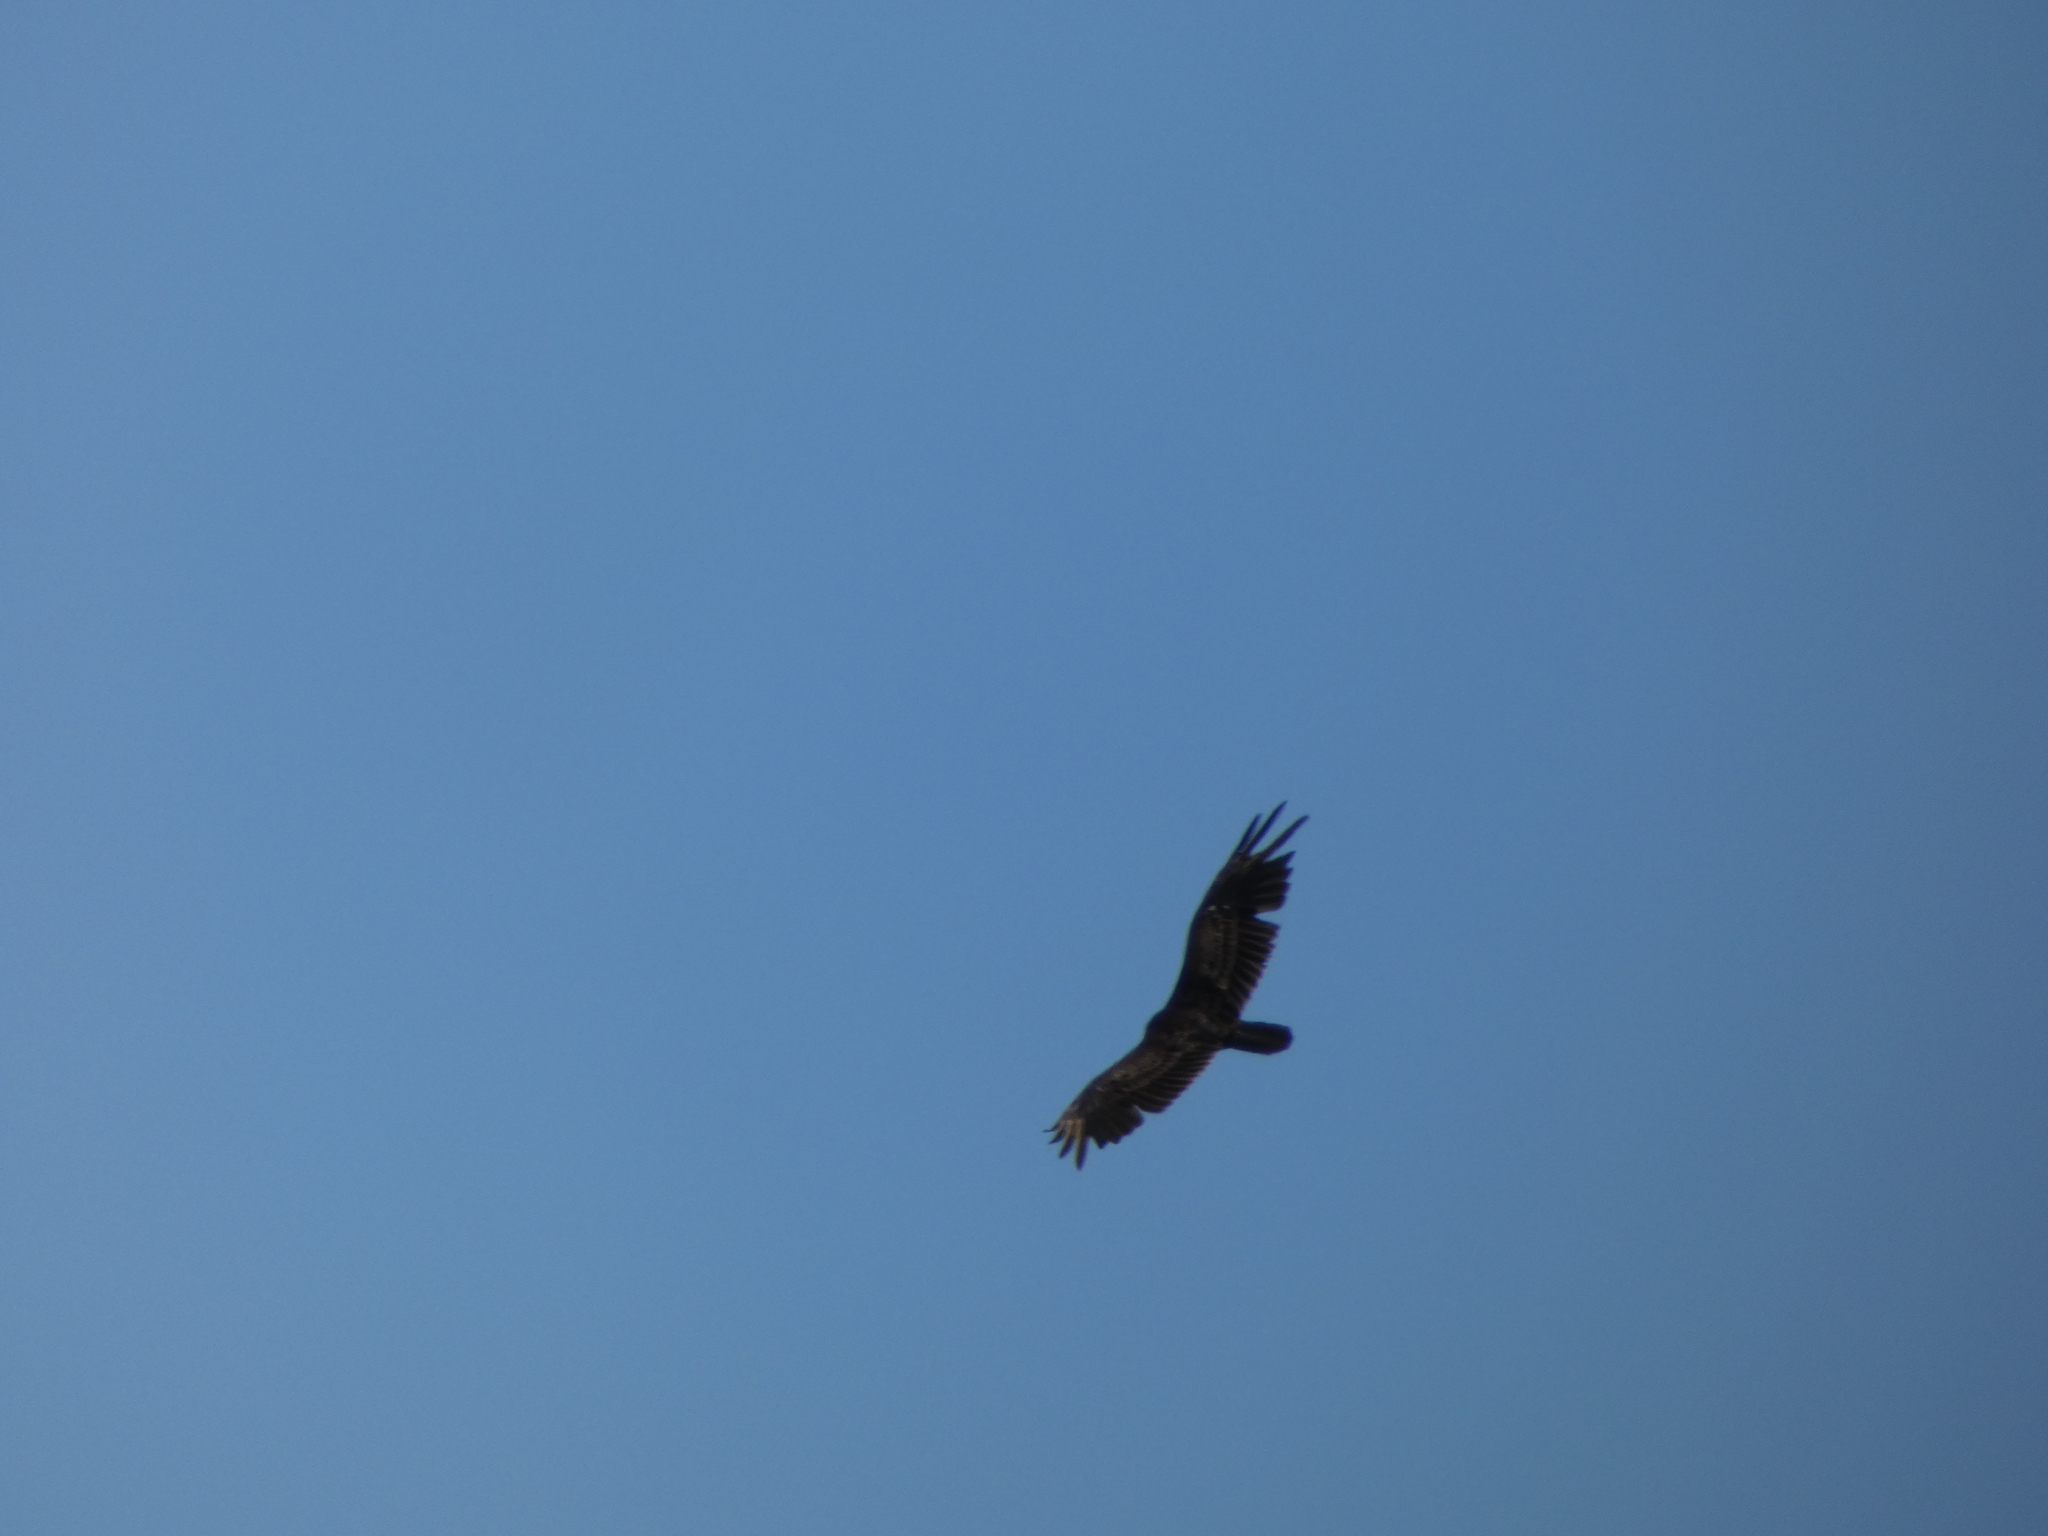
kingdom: Animalia
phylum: Chordata
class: Aves
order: Accipitriformes
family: Cathartidae
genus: Cathartes
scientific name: Cathartes aura
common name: Turkey vulture
